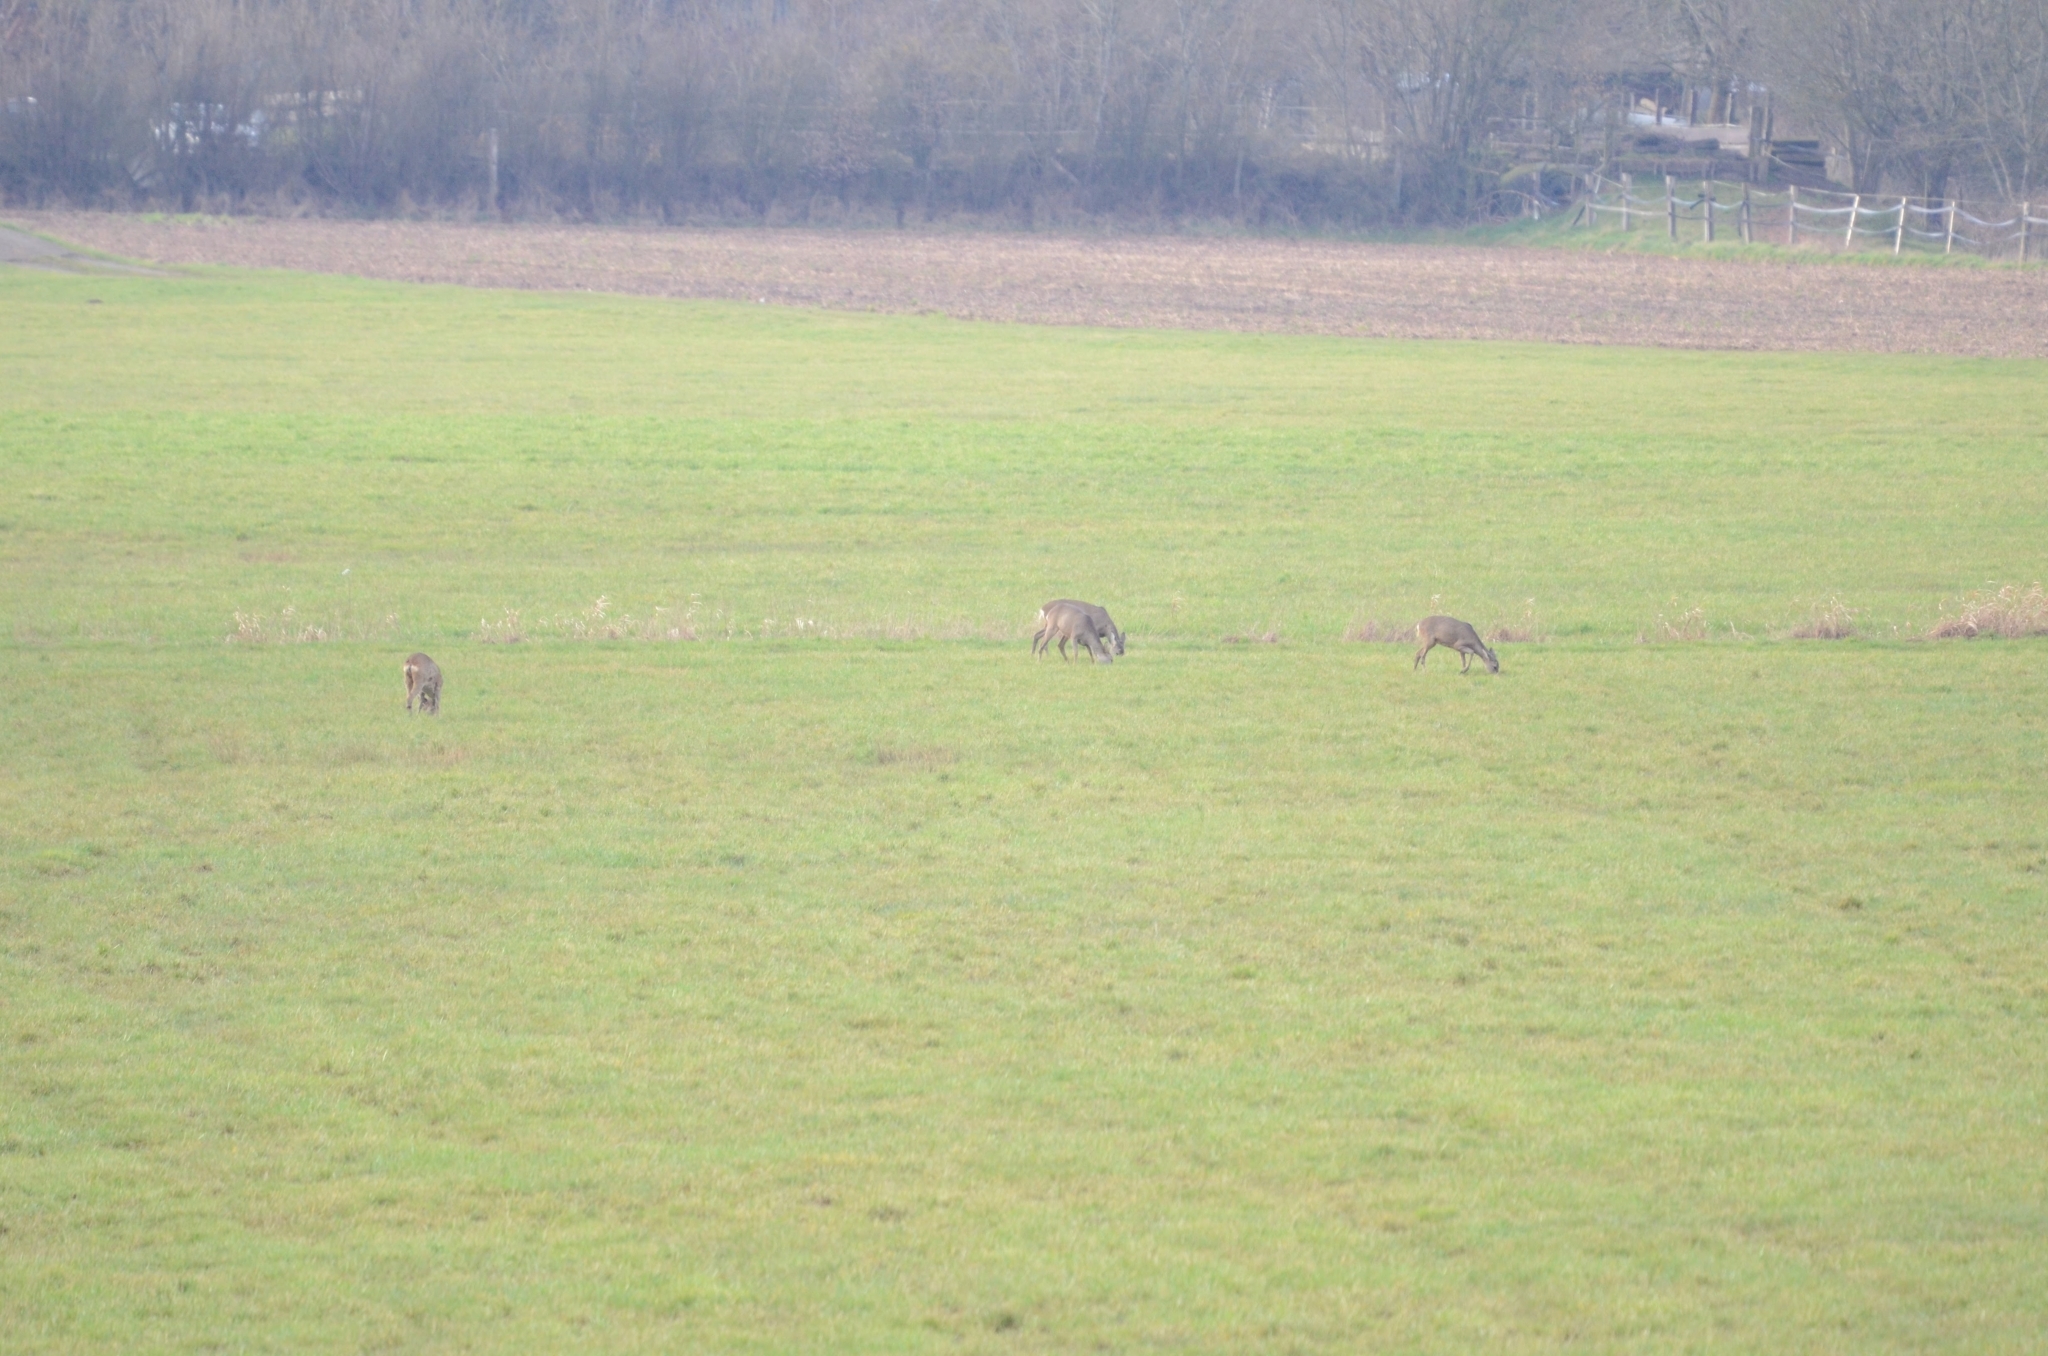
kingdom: Animalia
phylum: Chordata
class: Mammalia
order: Artiodactyla
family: Cervidae
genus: Capreolus
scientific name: Capreolus capreolus
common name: Western roe deer
